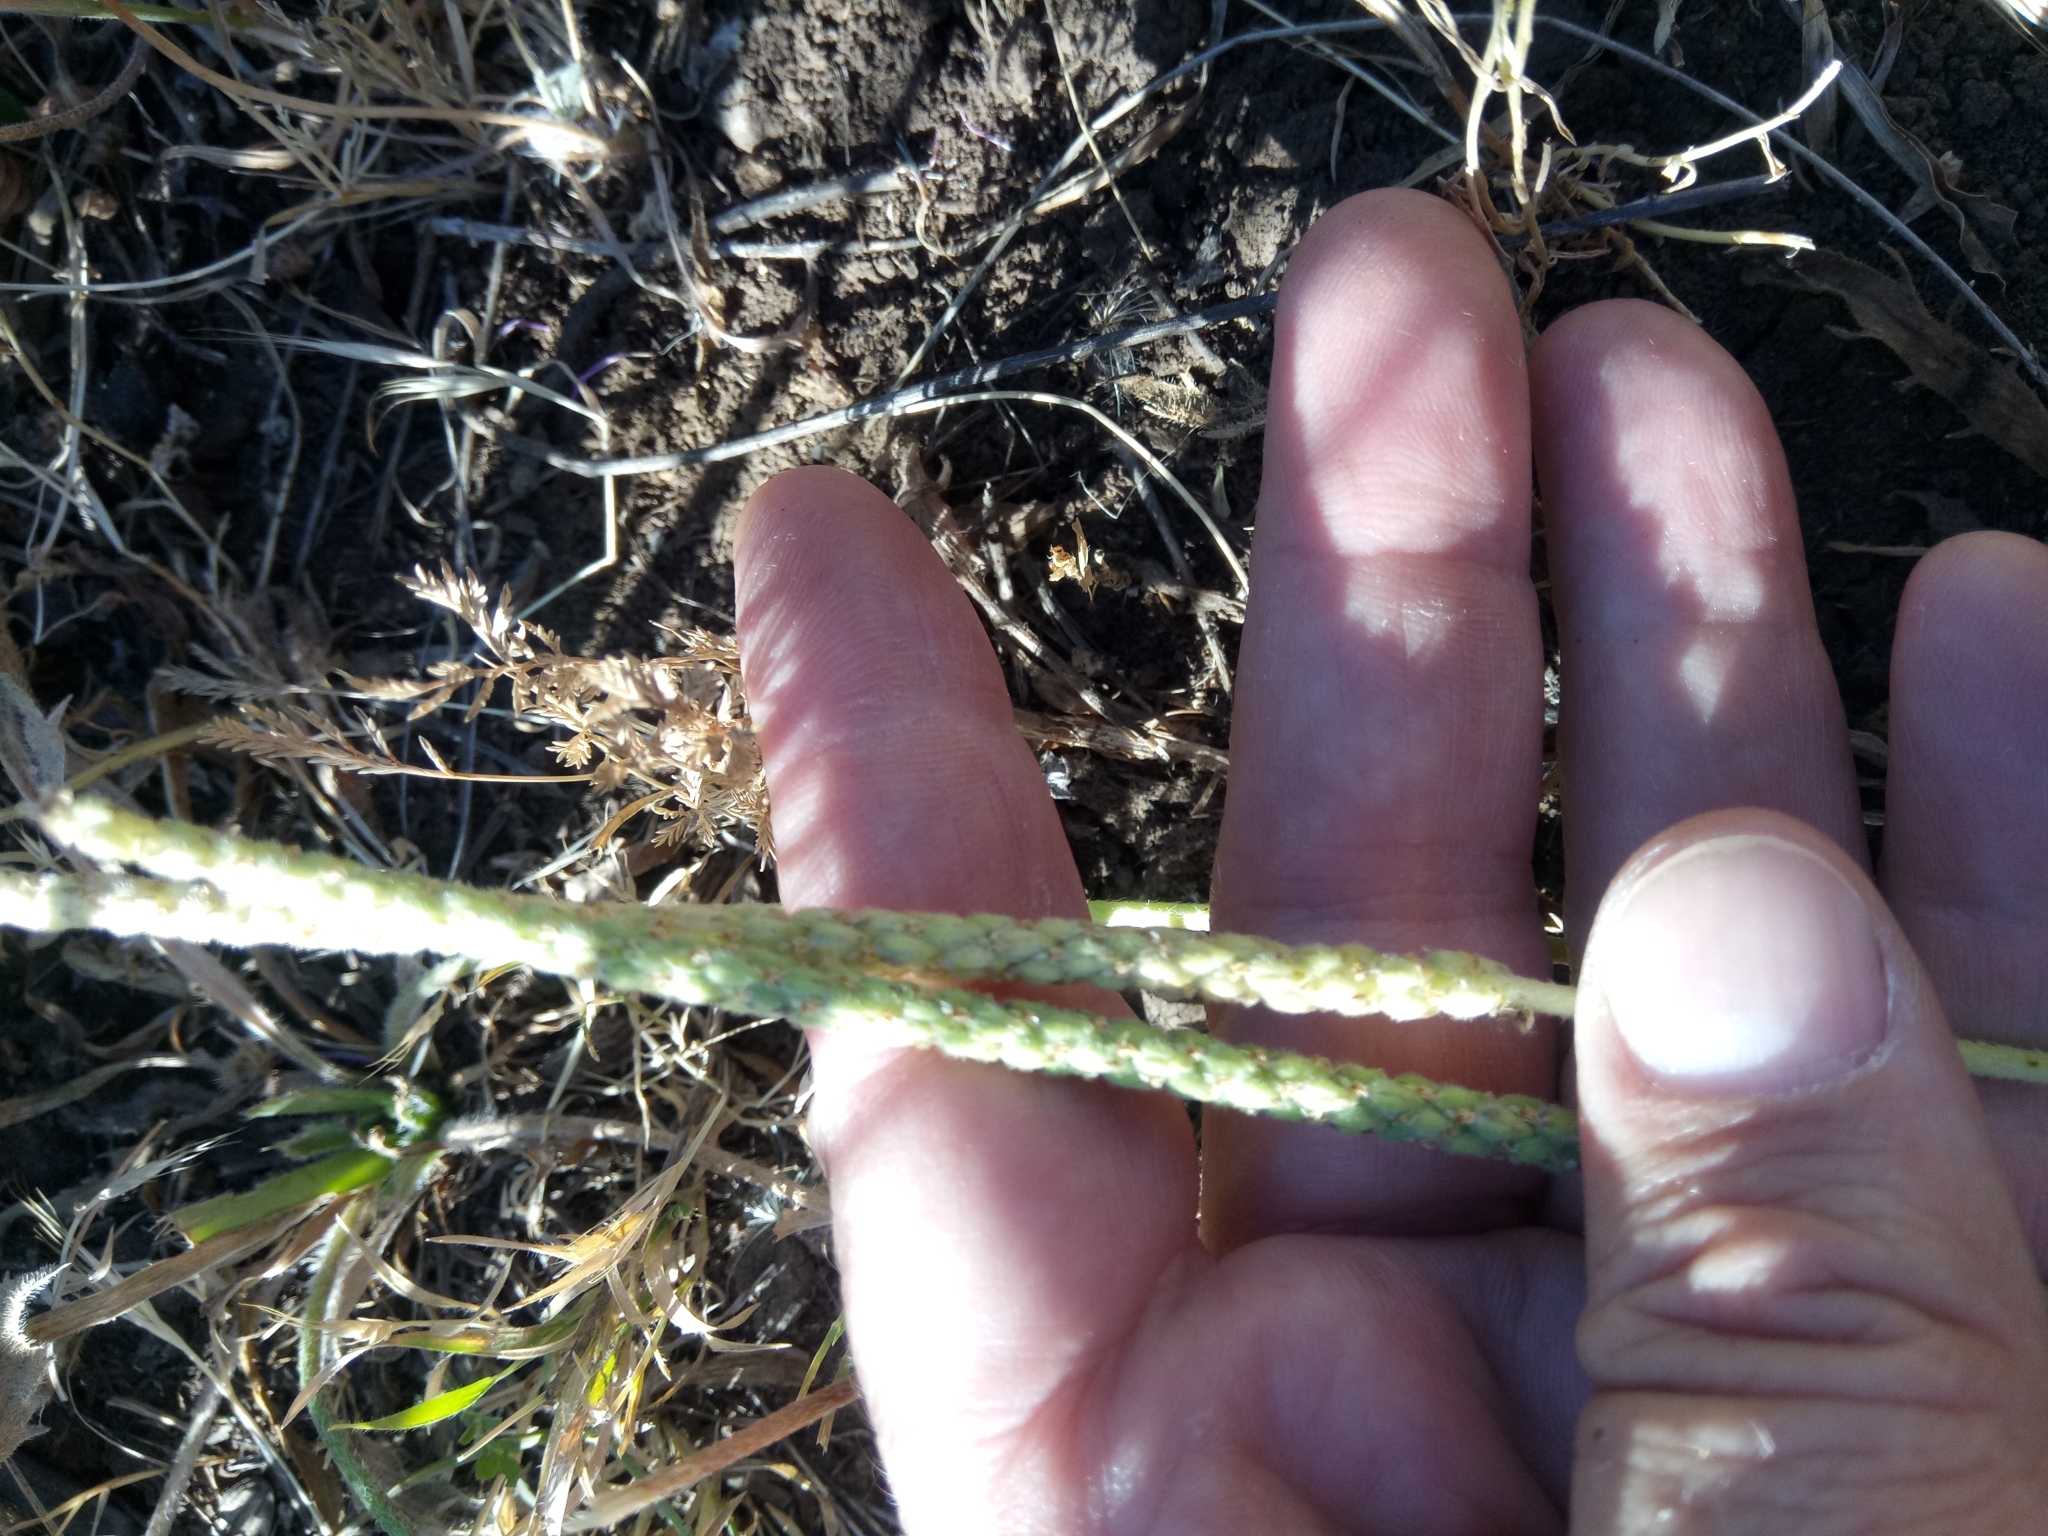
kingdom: Plantae
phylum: Tracheophyta
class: Magnoliopsida
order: Lamiales
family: Plantaginaceae
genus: Plantago
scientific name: Plantago serraria
